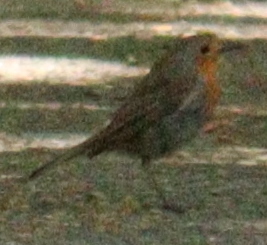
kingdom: Animalia
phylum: Chordata
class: Aves
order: Passeriformes
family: Muscicapidae
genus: Erithacus
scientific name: Erithacus rubecula
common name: European robin
